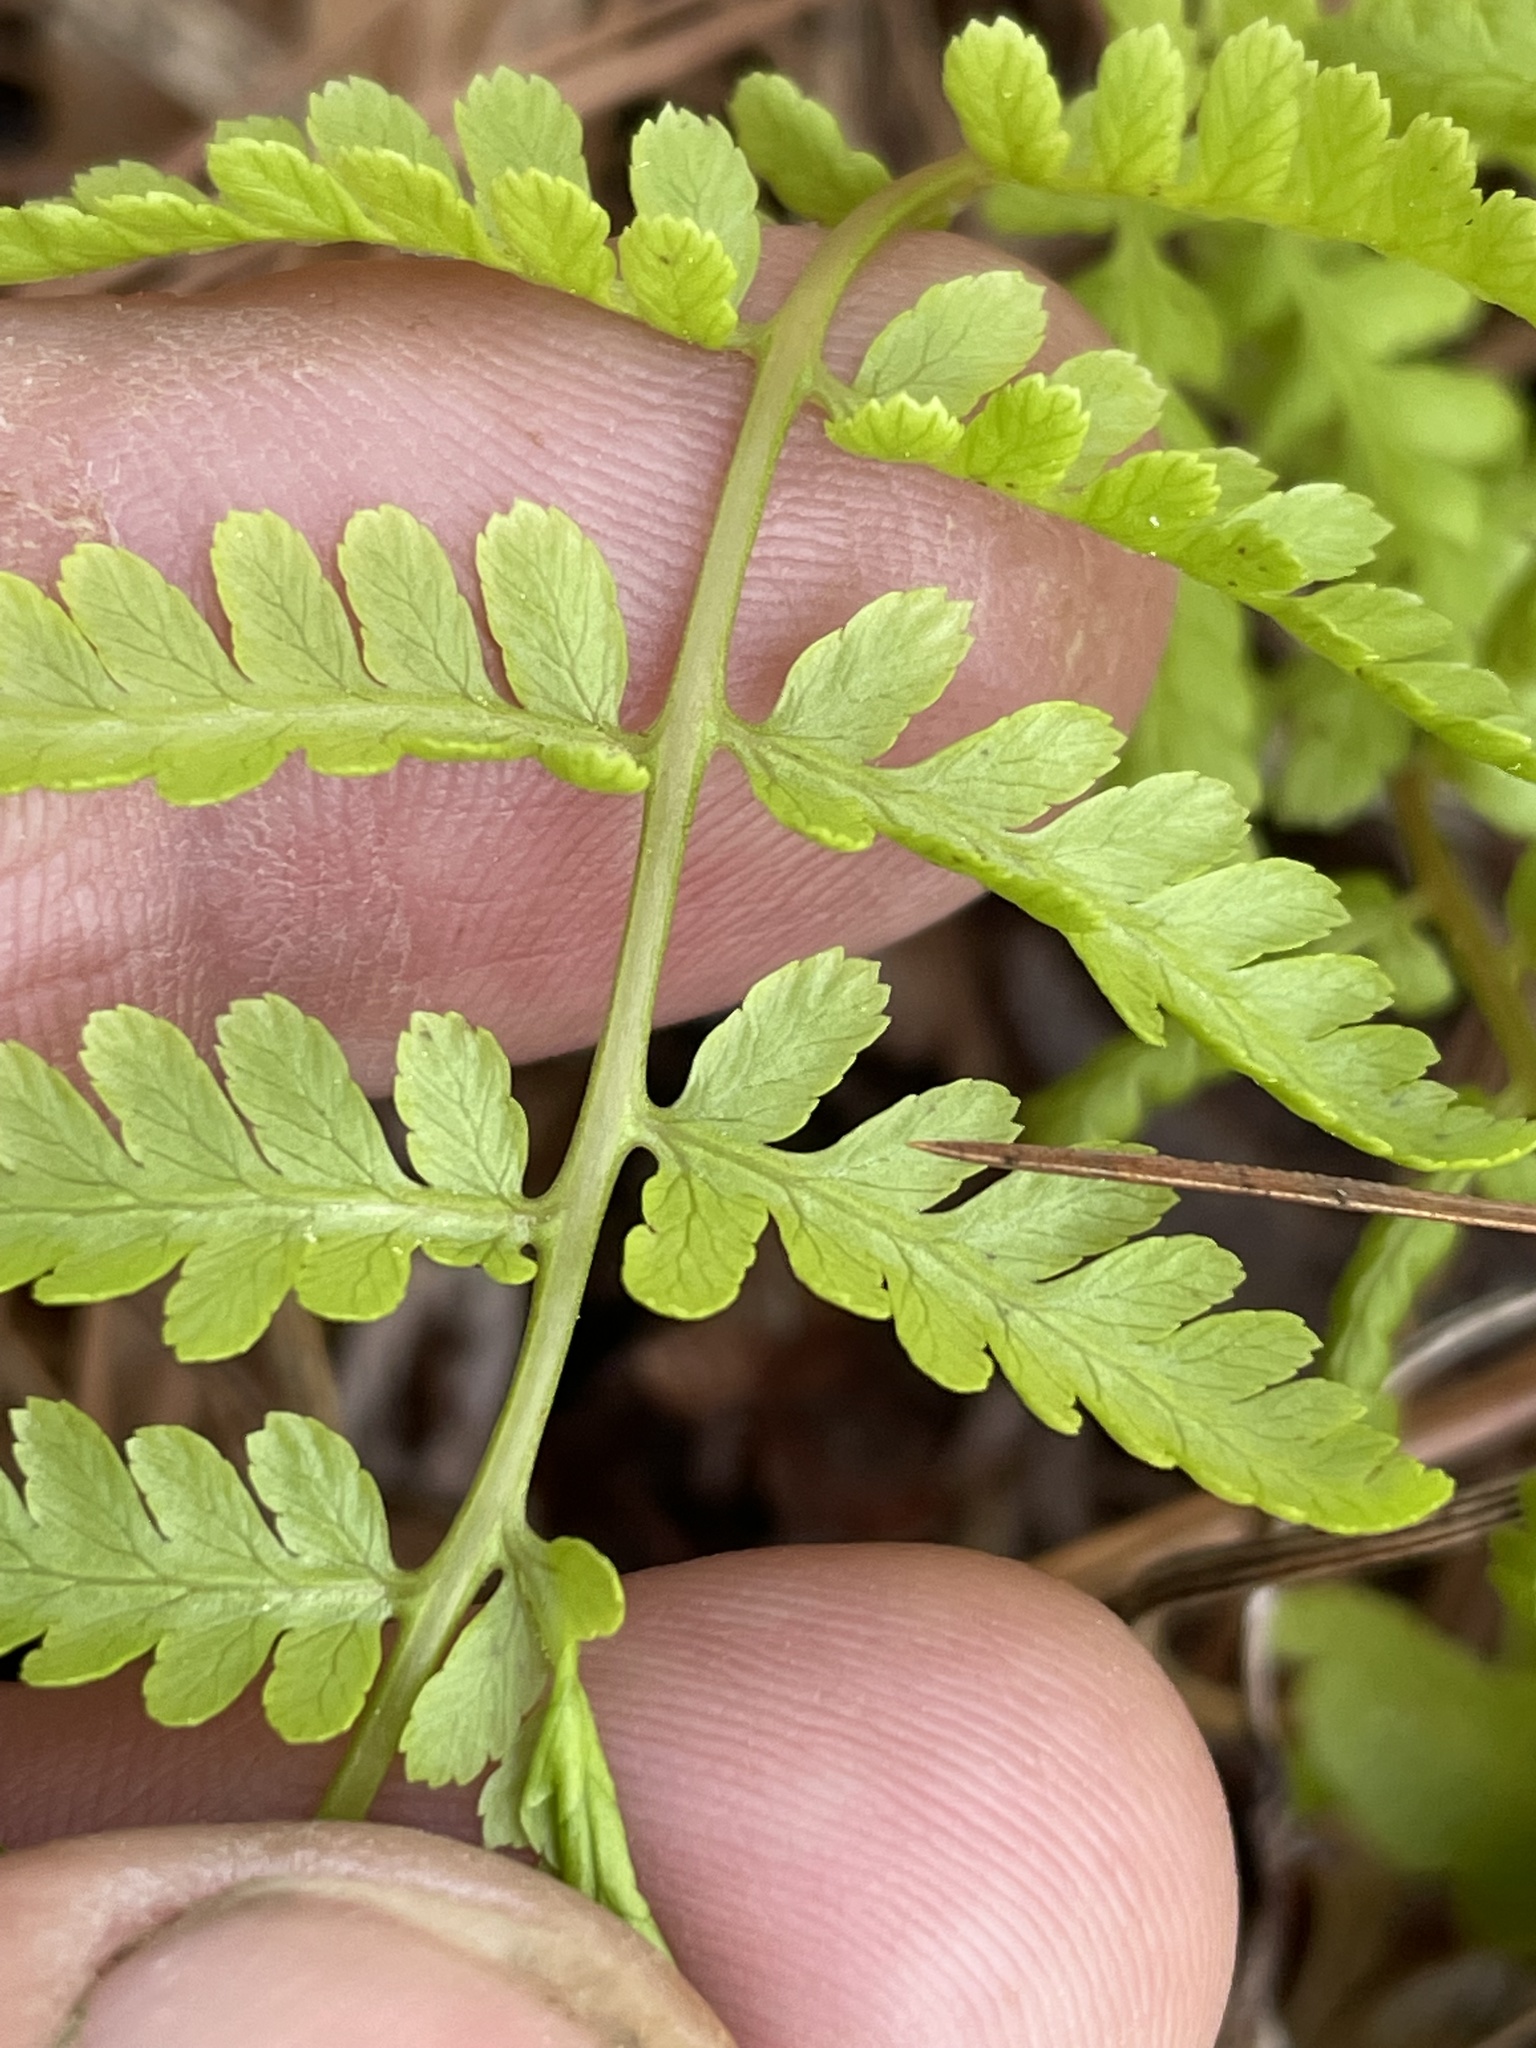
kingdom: Plantae
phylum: Tracheophyta
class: Polypodiopsida
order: Polypodiales
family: Athyriaceae
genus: Athyrium
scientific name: Athyrium asplenioides
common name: Southern lady fern
